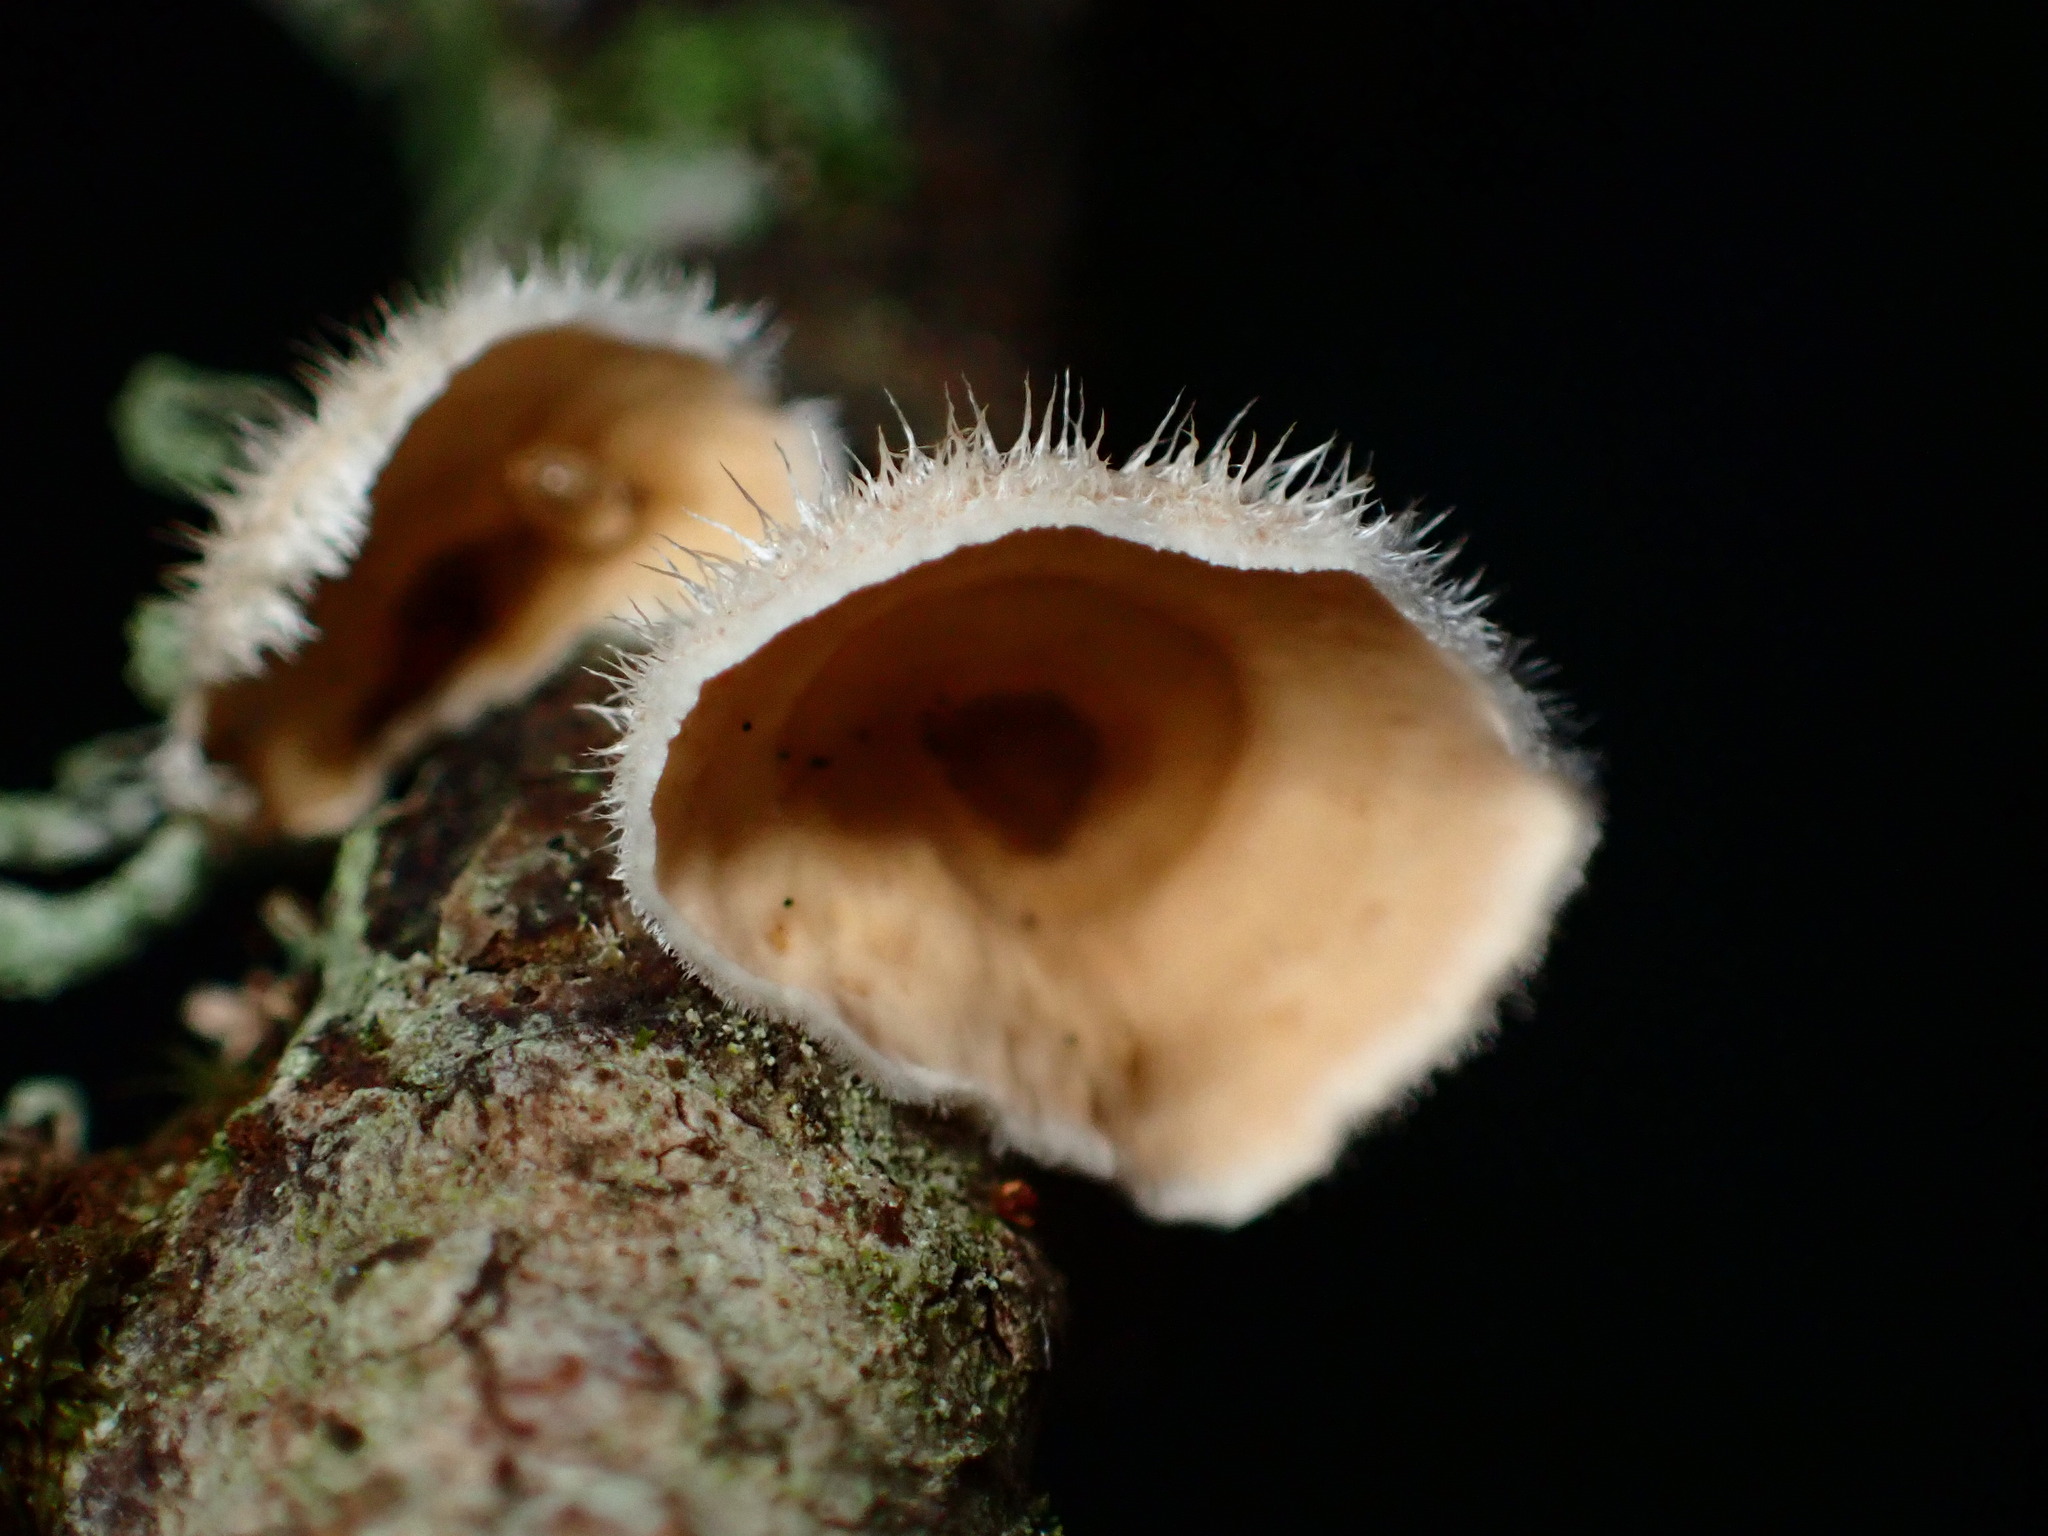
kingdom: Fungi
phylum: Basidiomycota
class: Agaricomycetes
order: Russulales
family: Stereaceae
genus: Stereum
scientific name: Stereum ochraceoflavum
